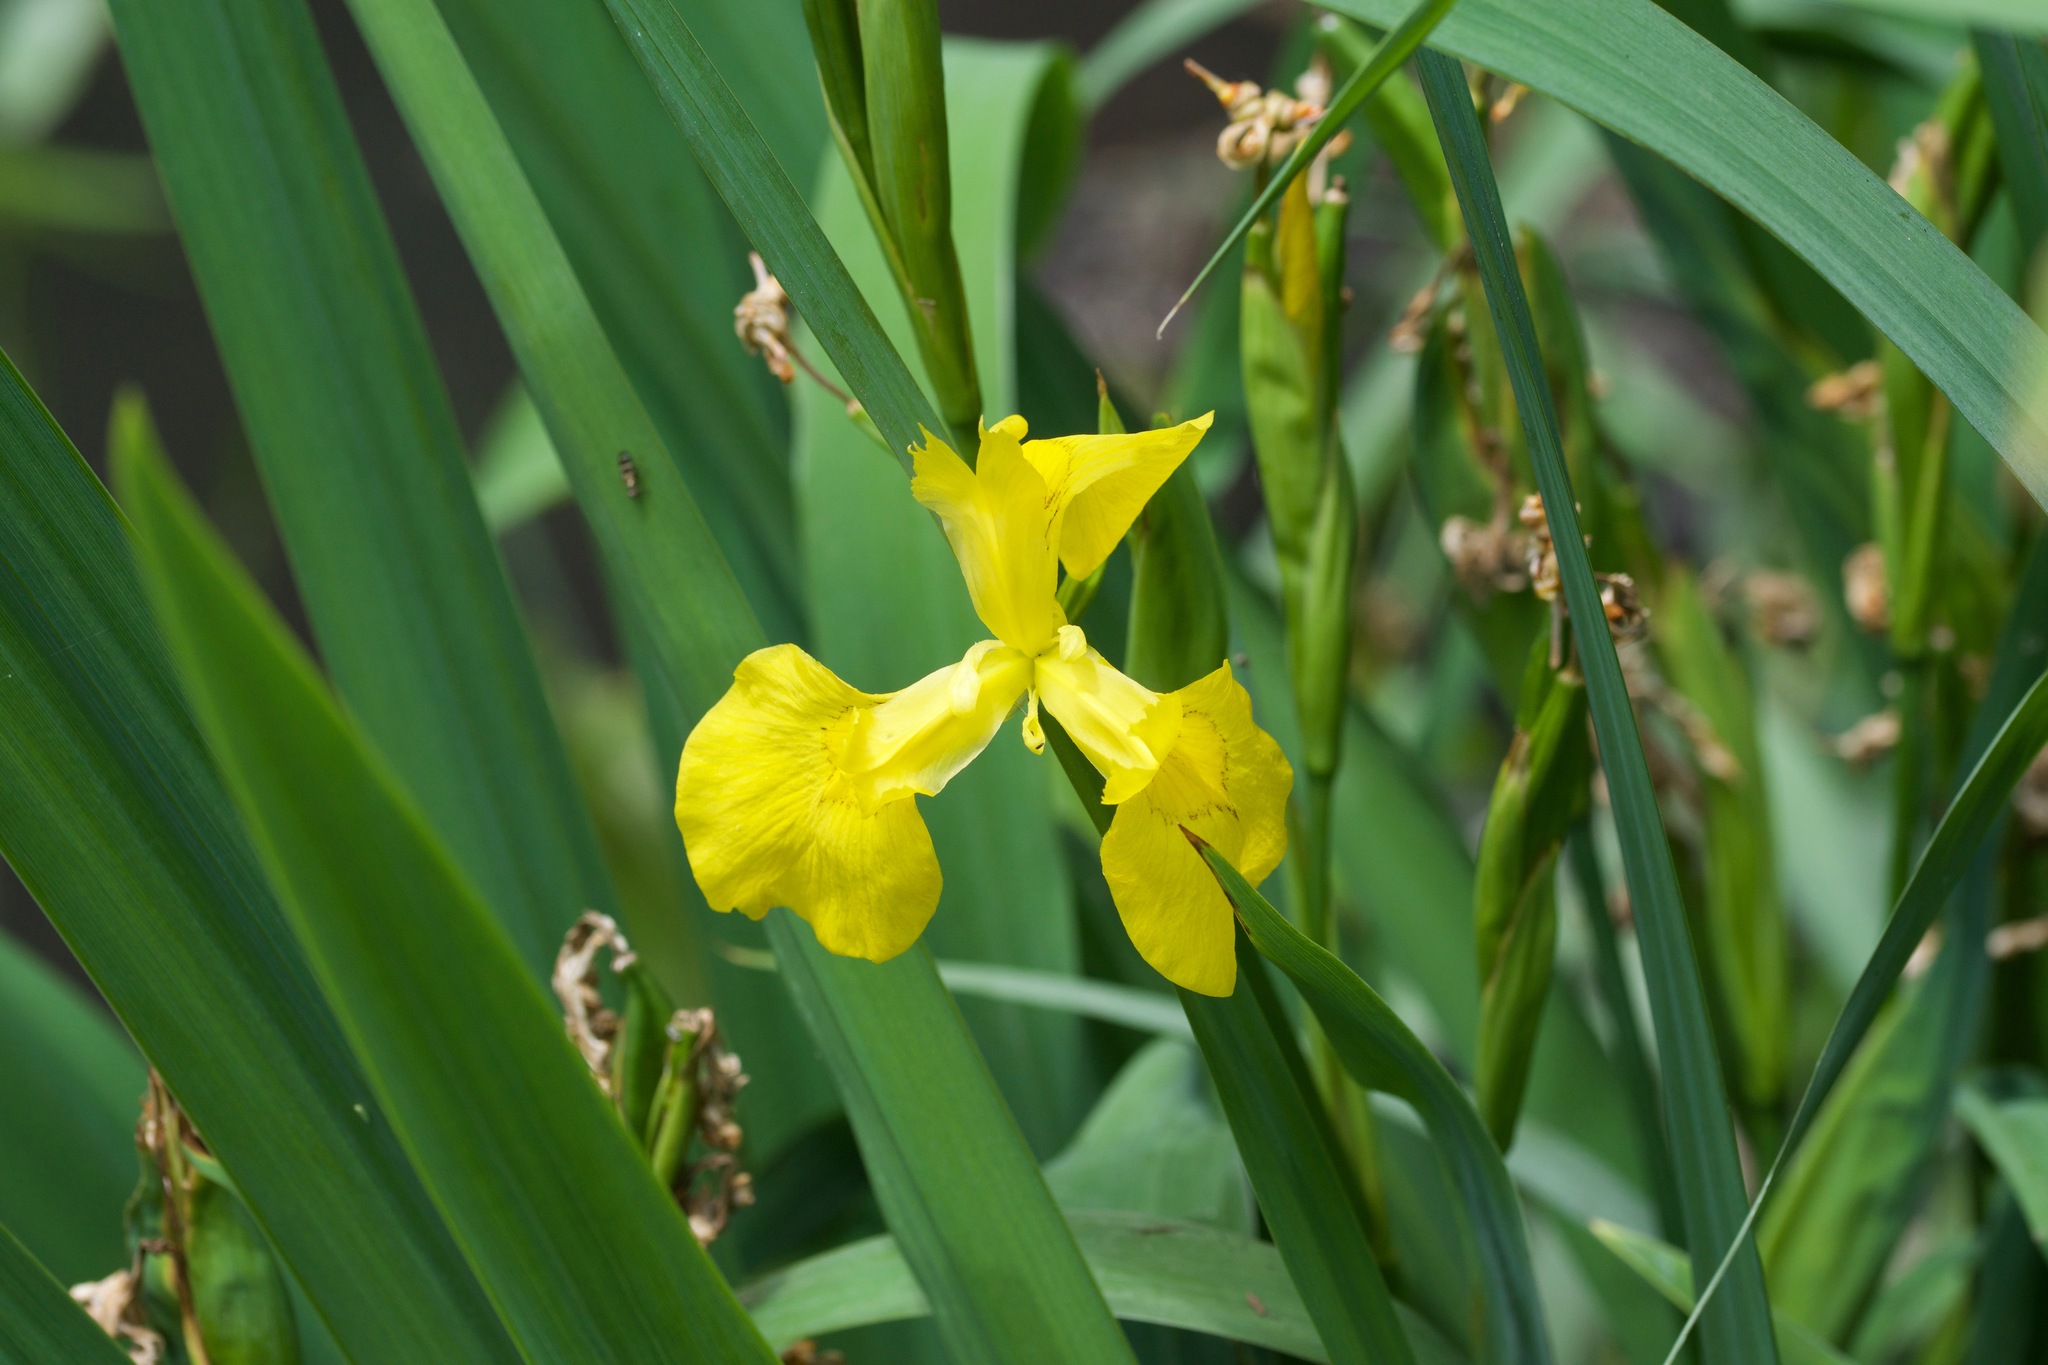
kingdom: Plantae
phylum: Tracheophyta
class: Liliopsida
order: Asparagales
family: Iridaceae
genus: Iris
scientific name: Iris pseudacorus
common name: Yellow flag
